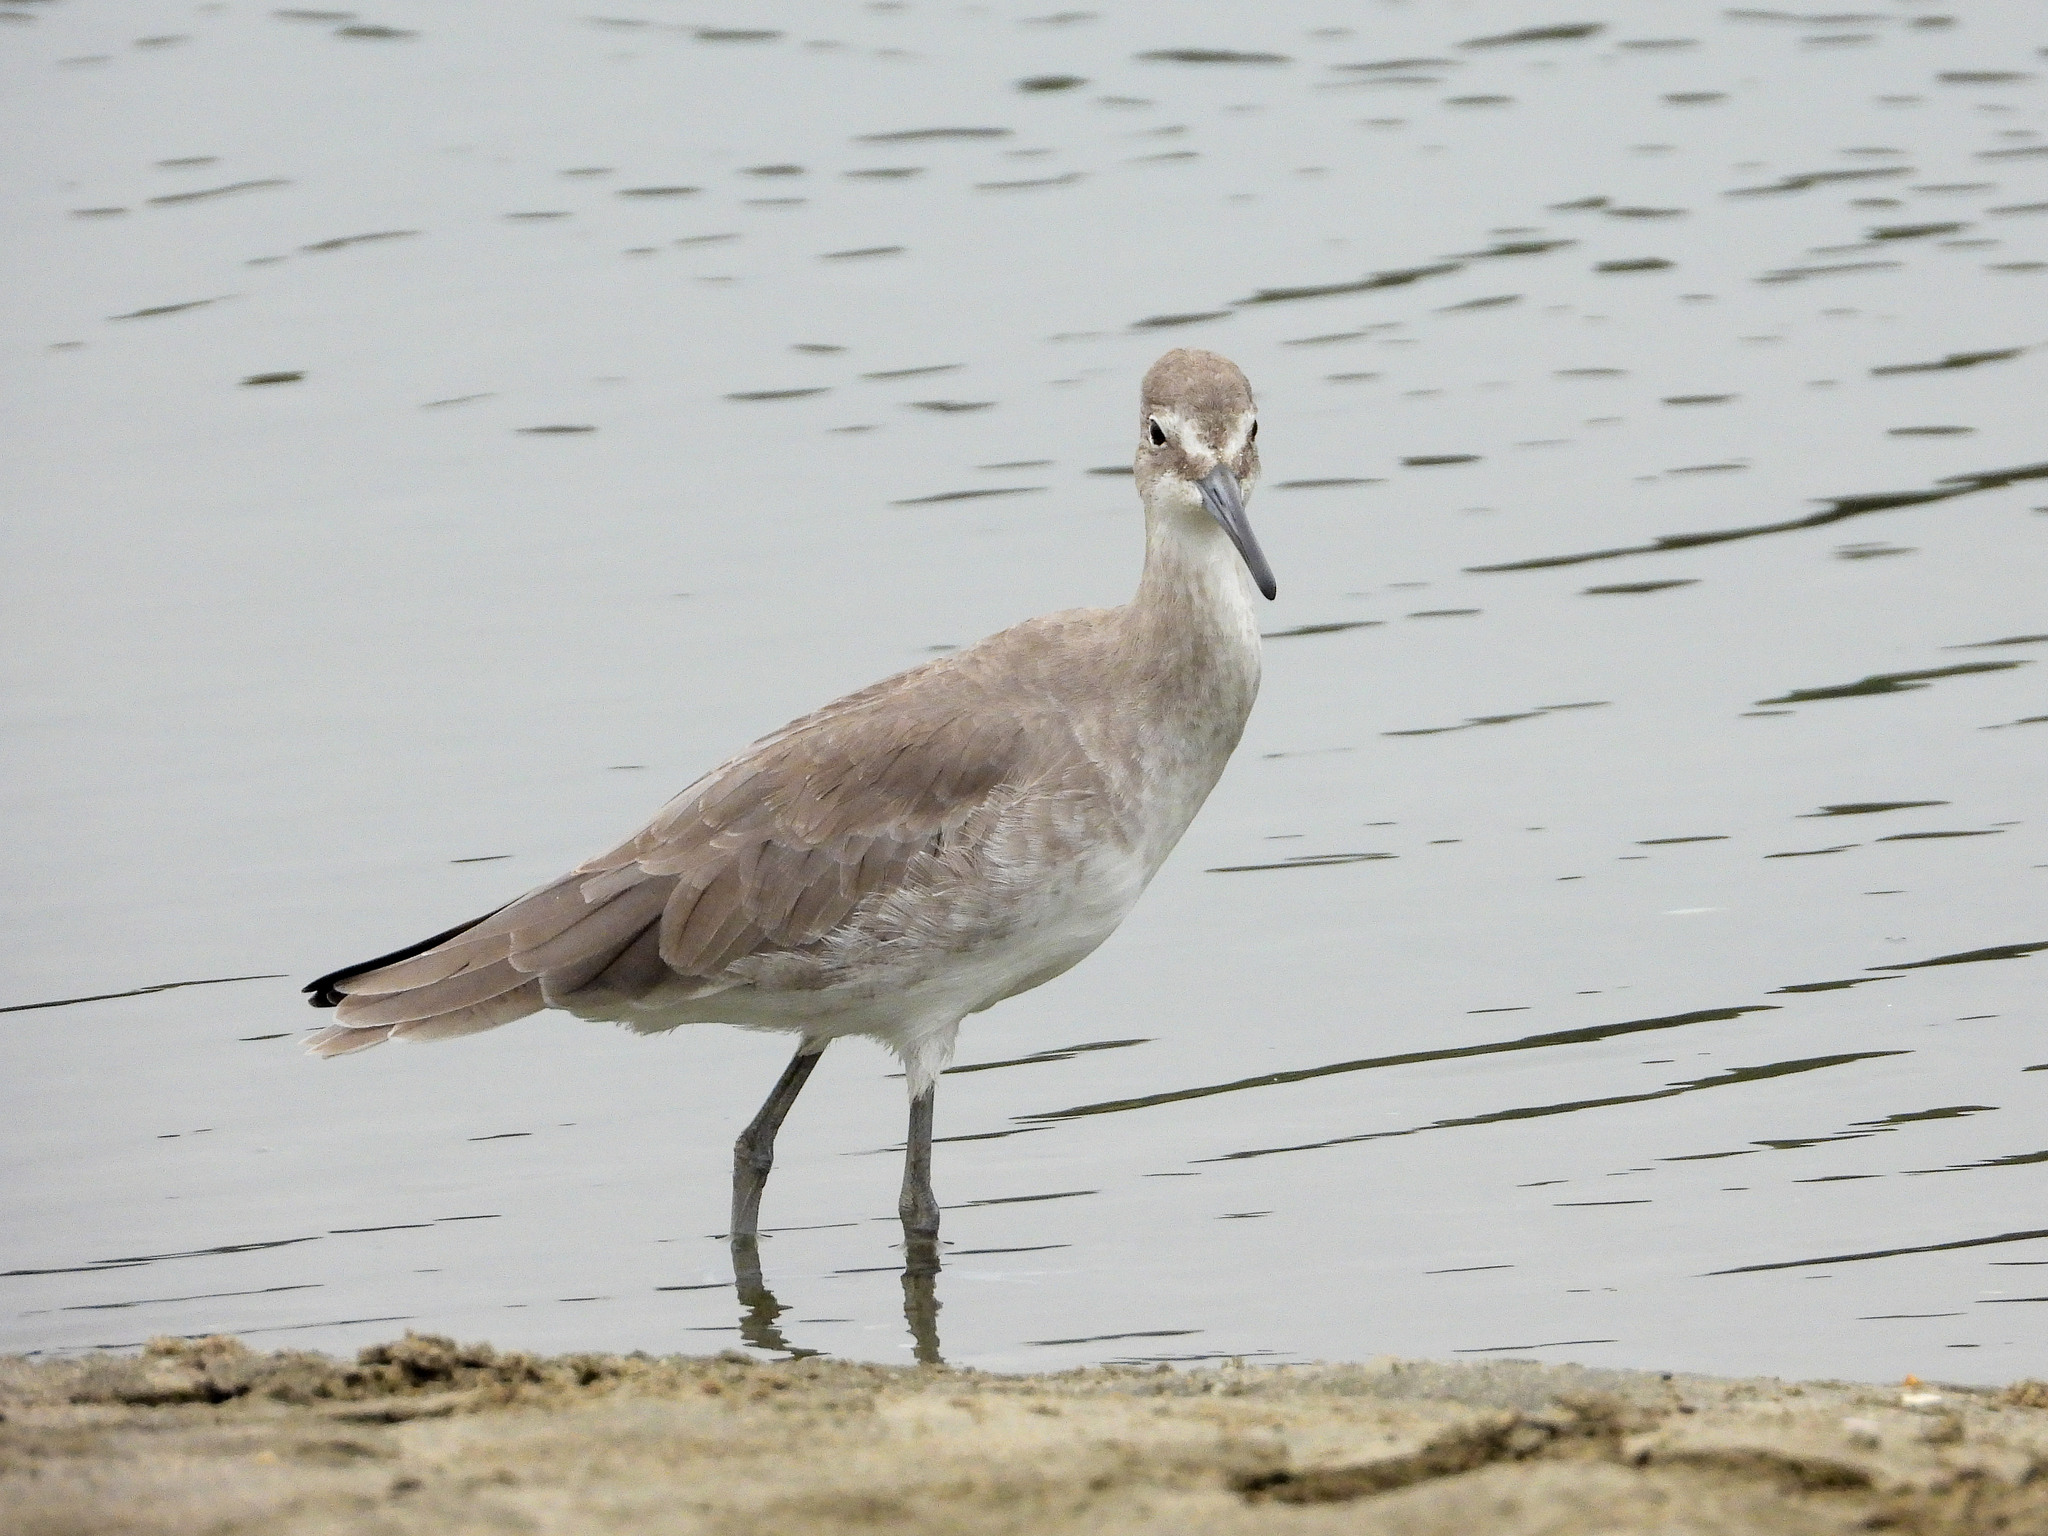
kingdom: Animalia
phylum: Chordata
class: Aves
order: Charadriiformes
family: Scolopacidae
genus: Tringa
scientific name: Tringa semipalmata
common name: Willet
